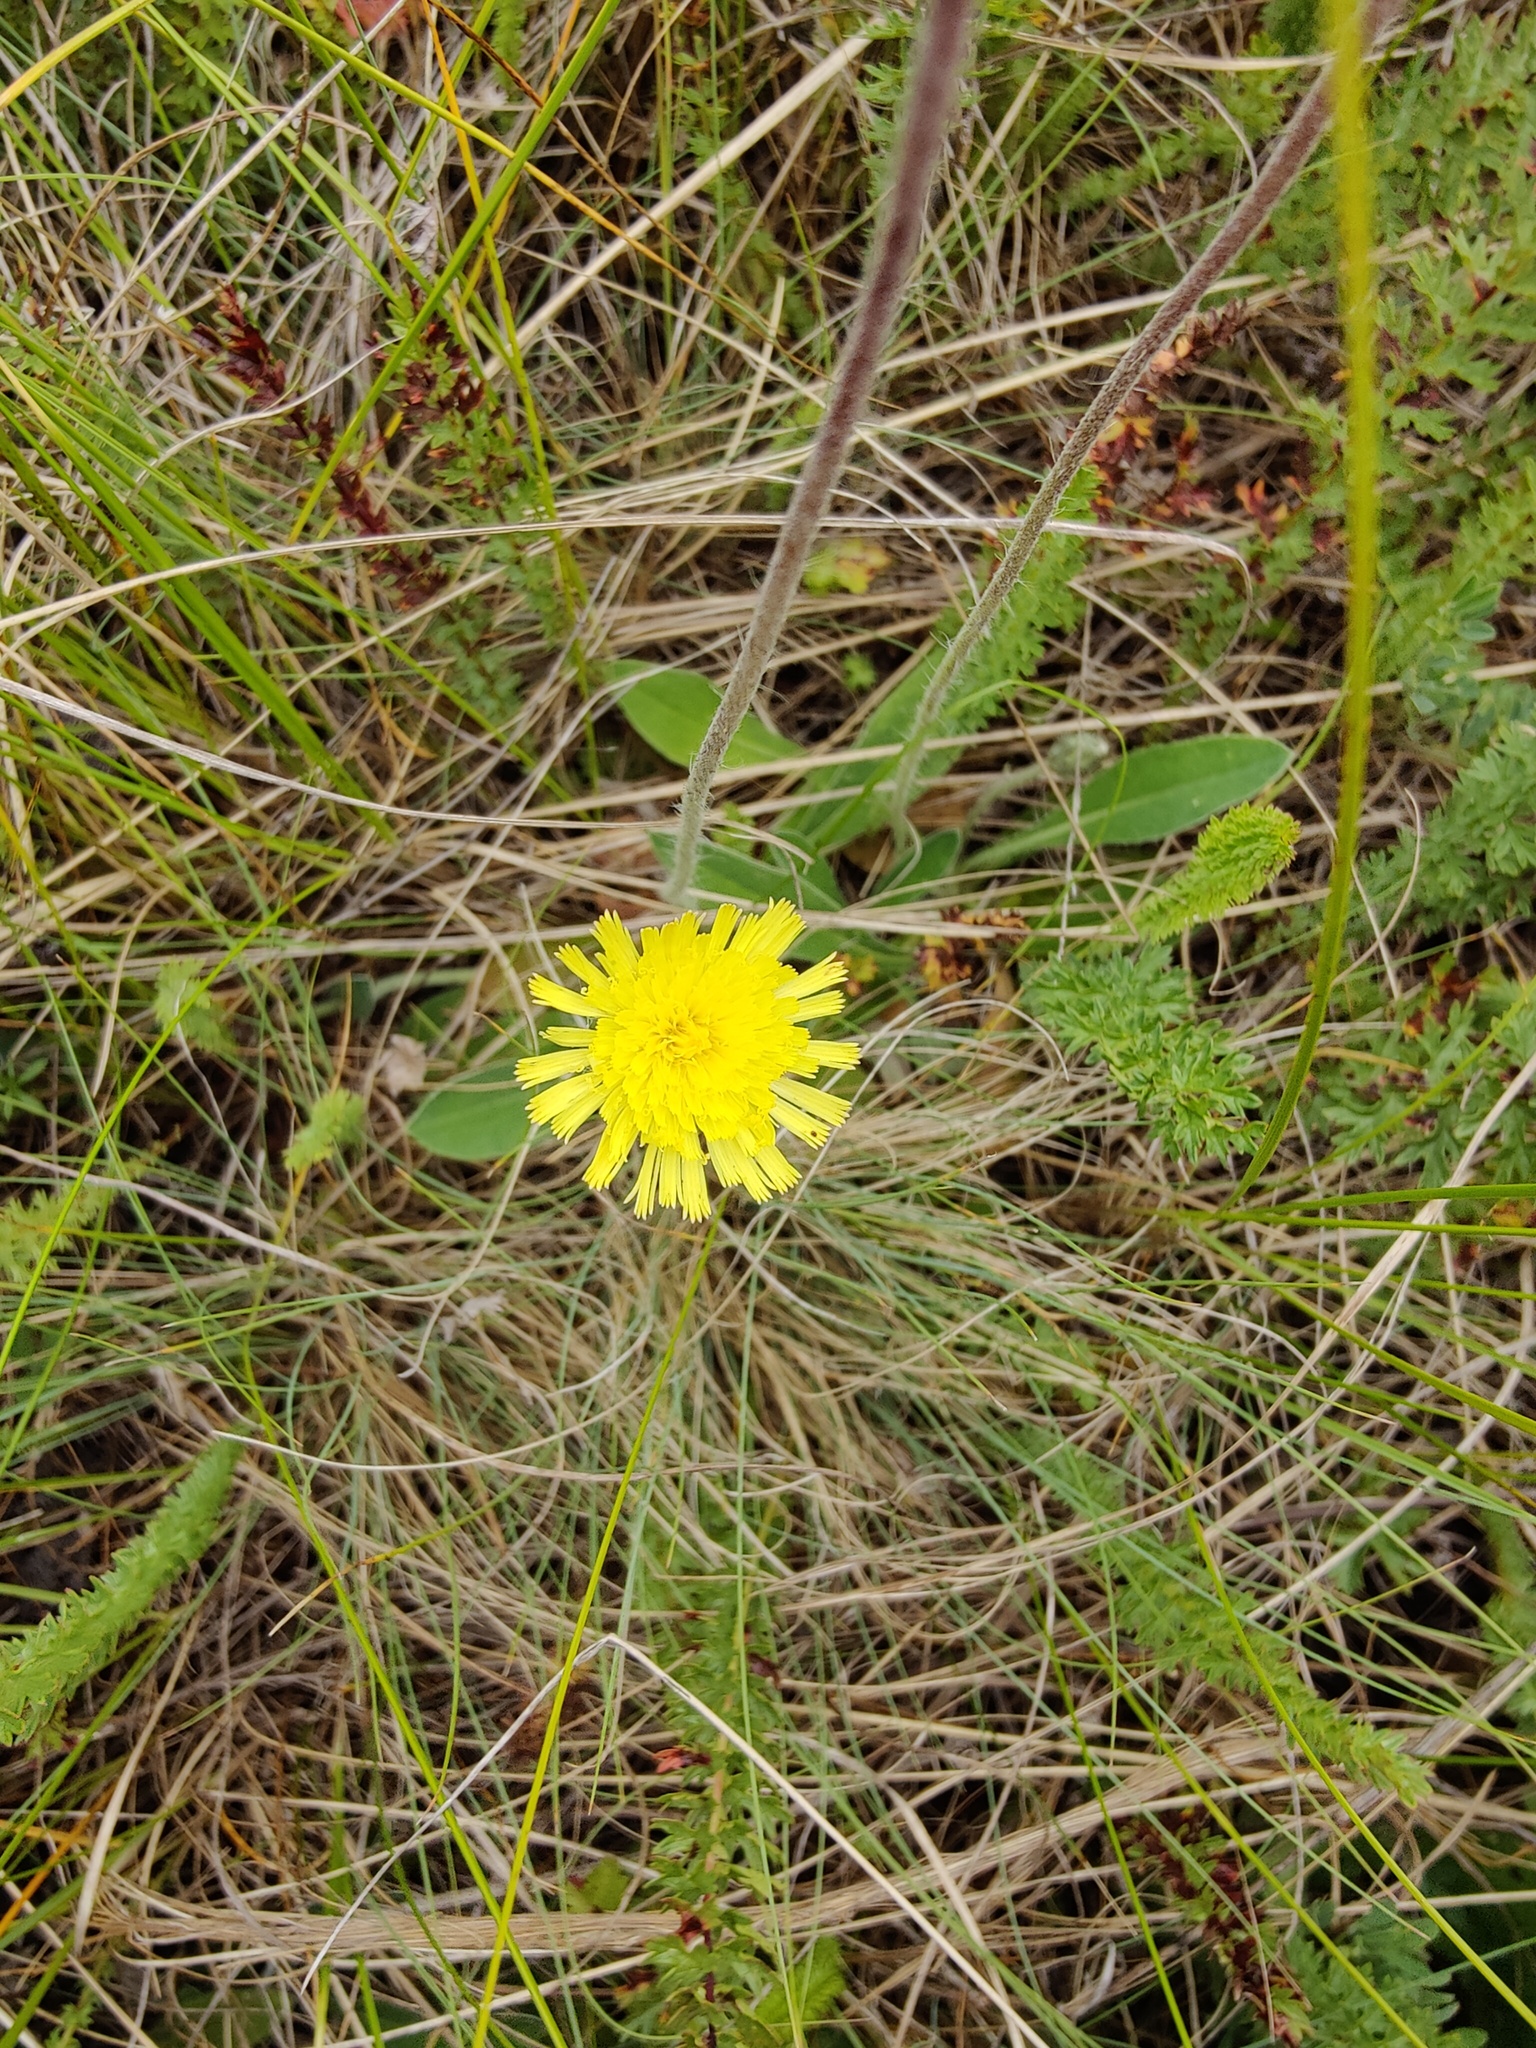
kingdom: Plantae
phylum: Tracheophyta
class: Magnoliopsida
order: Asterales
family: Asteraceae
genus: Pilosella
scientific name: Pilosella officinarum
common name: Mouse-ear hawkweed
